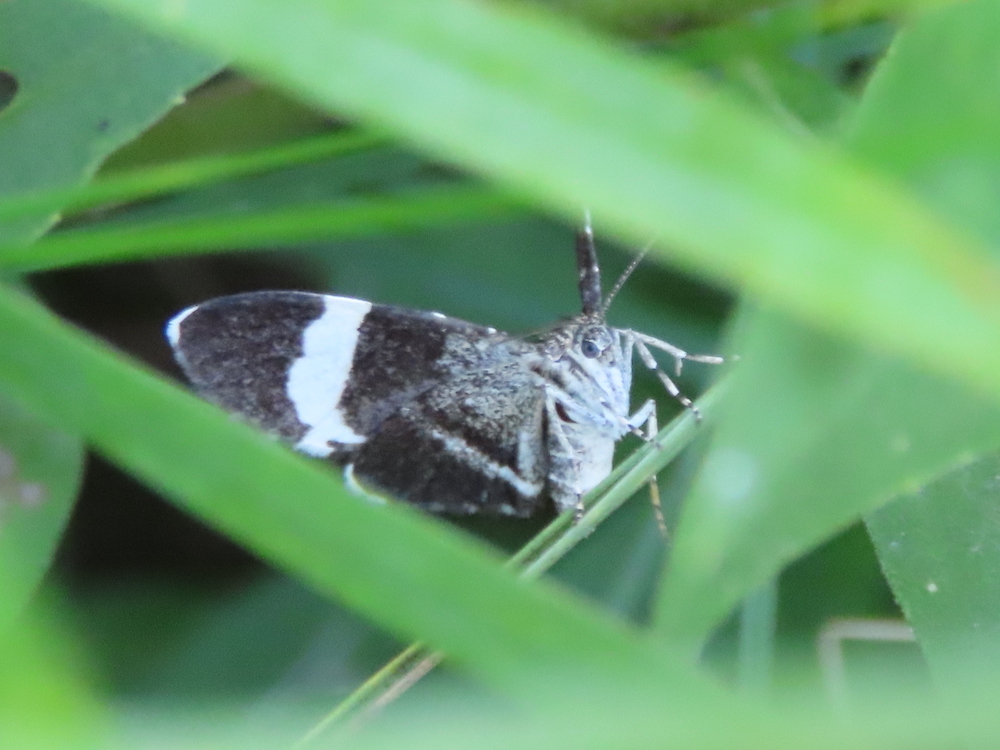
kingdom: Animalia
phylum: Arthropoda
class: Insecta
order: Lepidoptera
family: Geometridae
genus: Trichodezia
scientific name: Trichodezia albovittata
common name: White striped black
